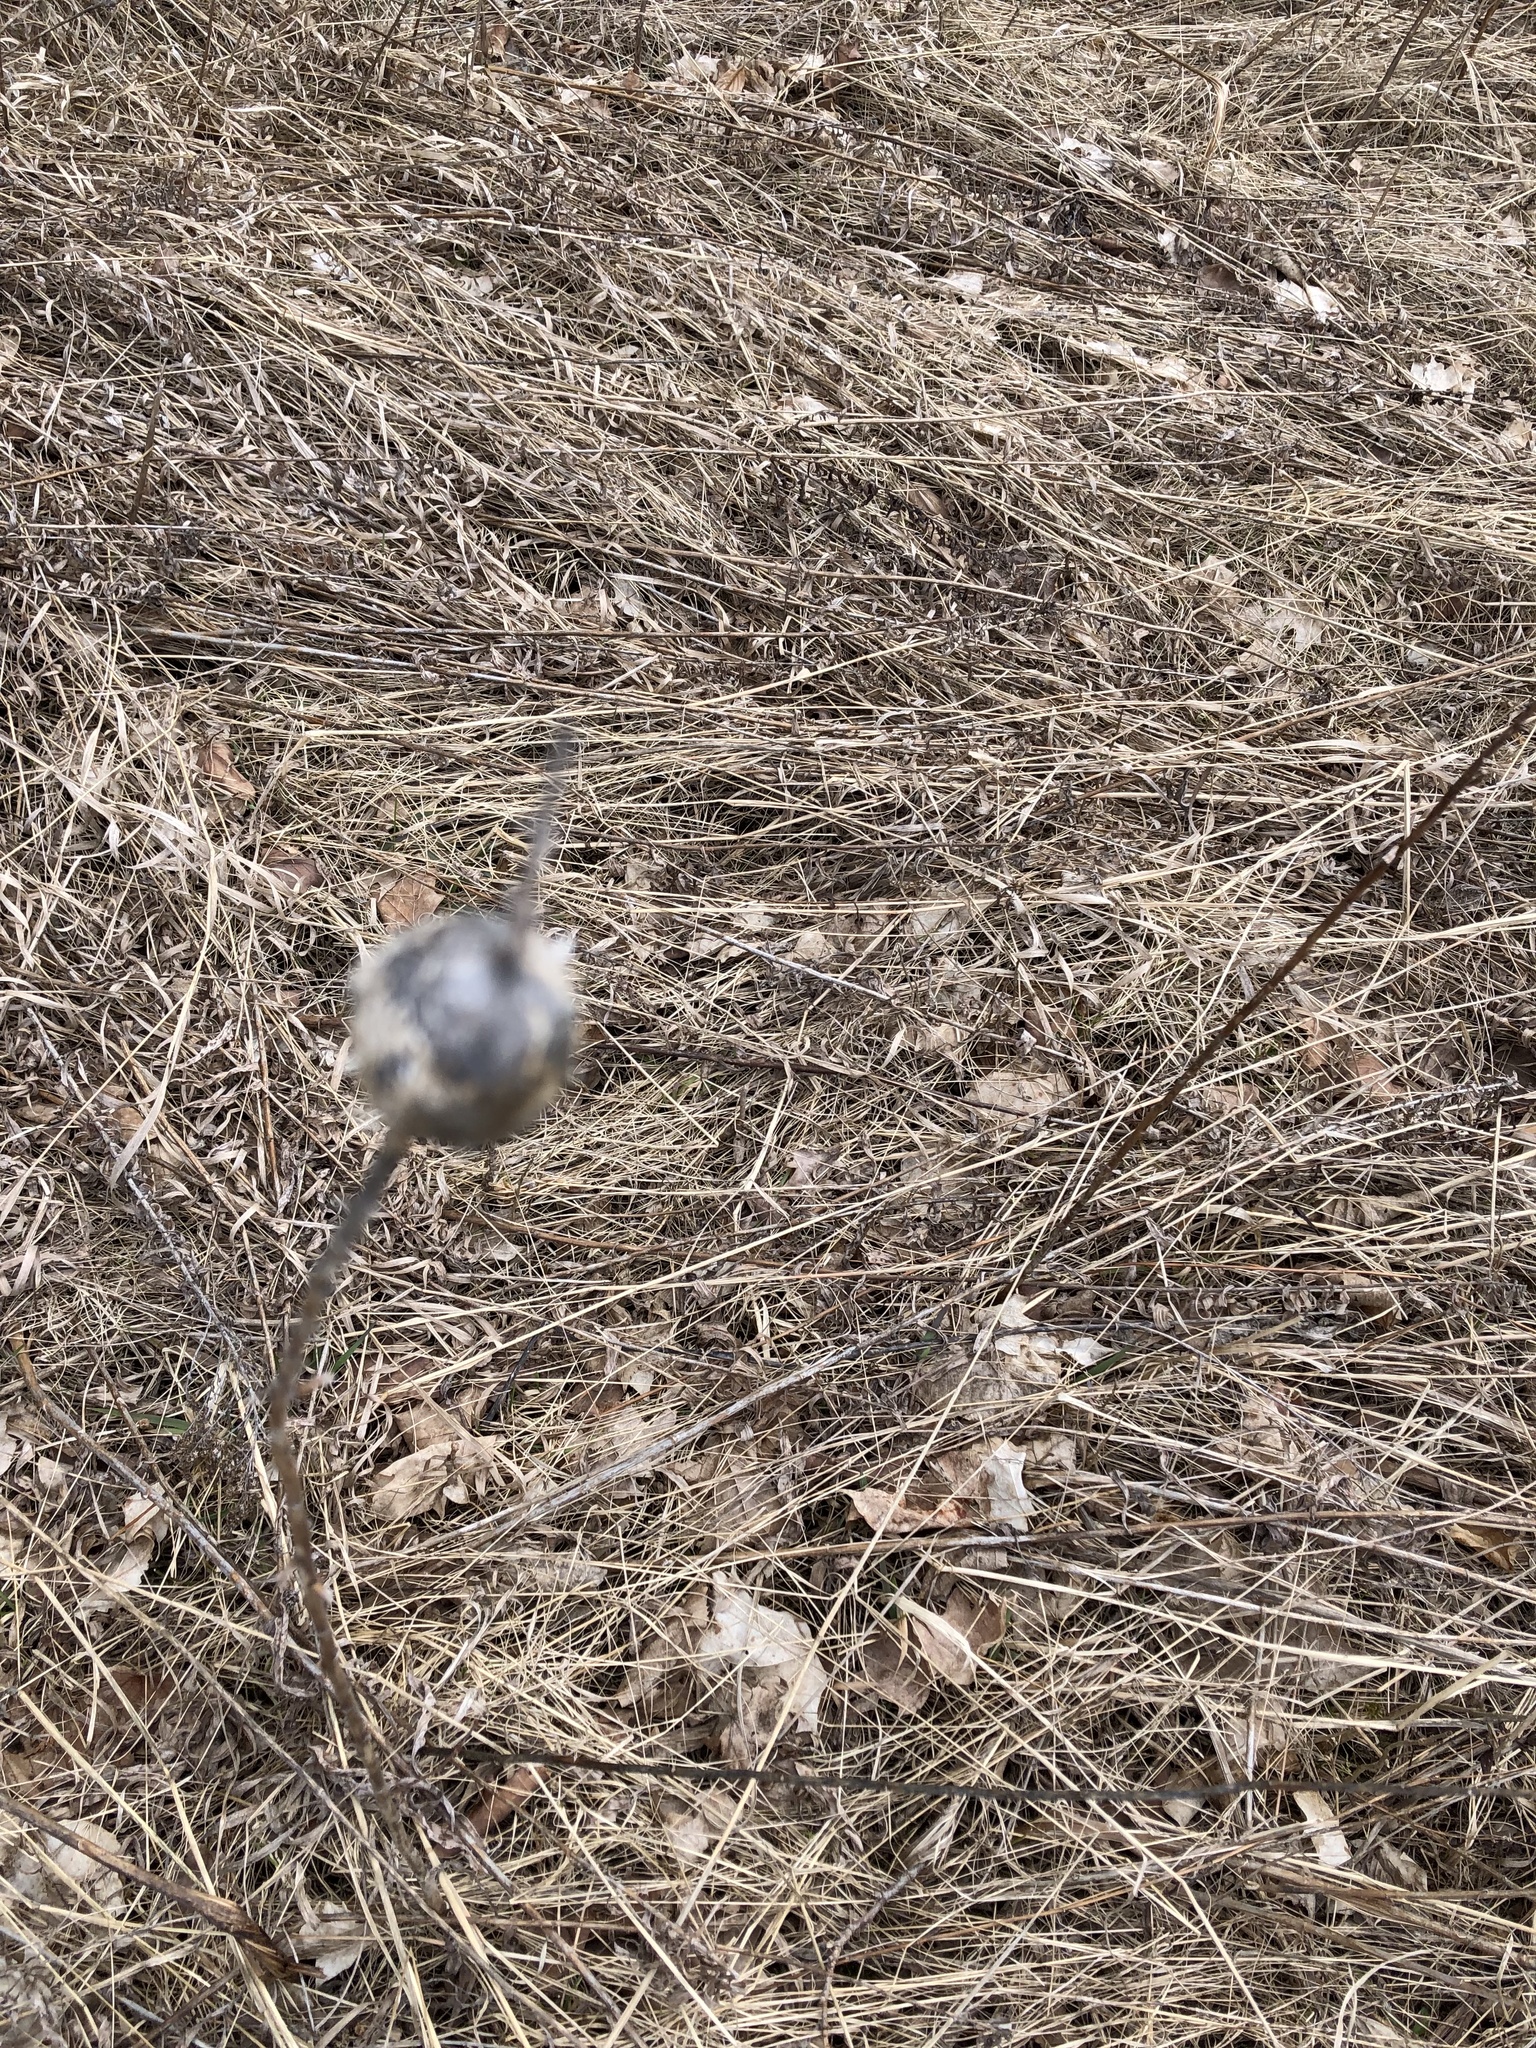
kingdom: Animalia
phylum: Arthropoda
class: Insecta
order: Diptera
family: Tephritidae
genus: Eurosta
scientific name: Eurosta solidaginis
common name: Goldenrod gall fly
